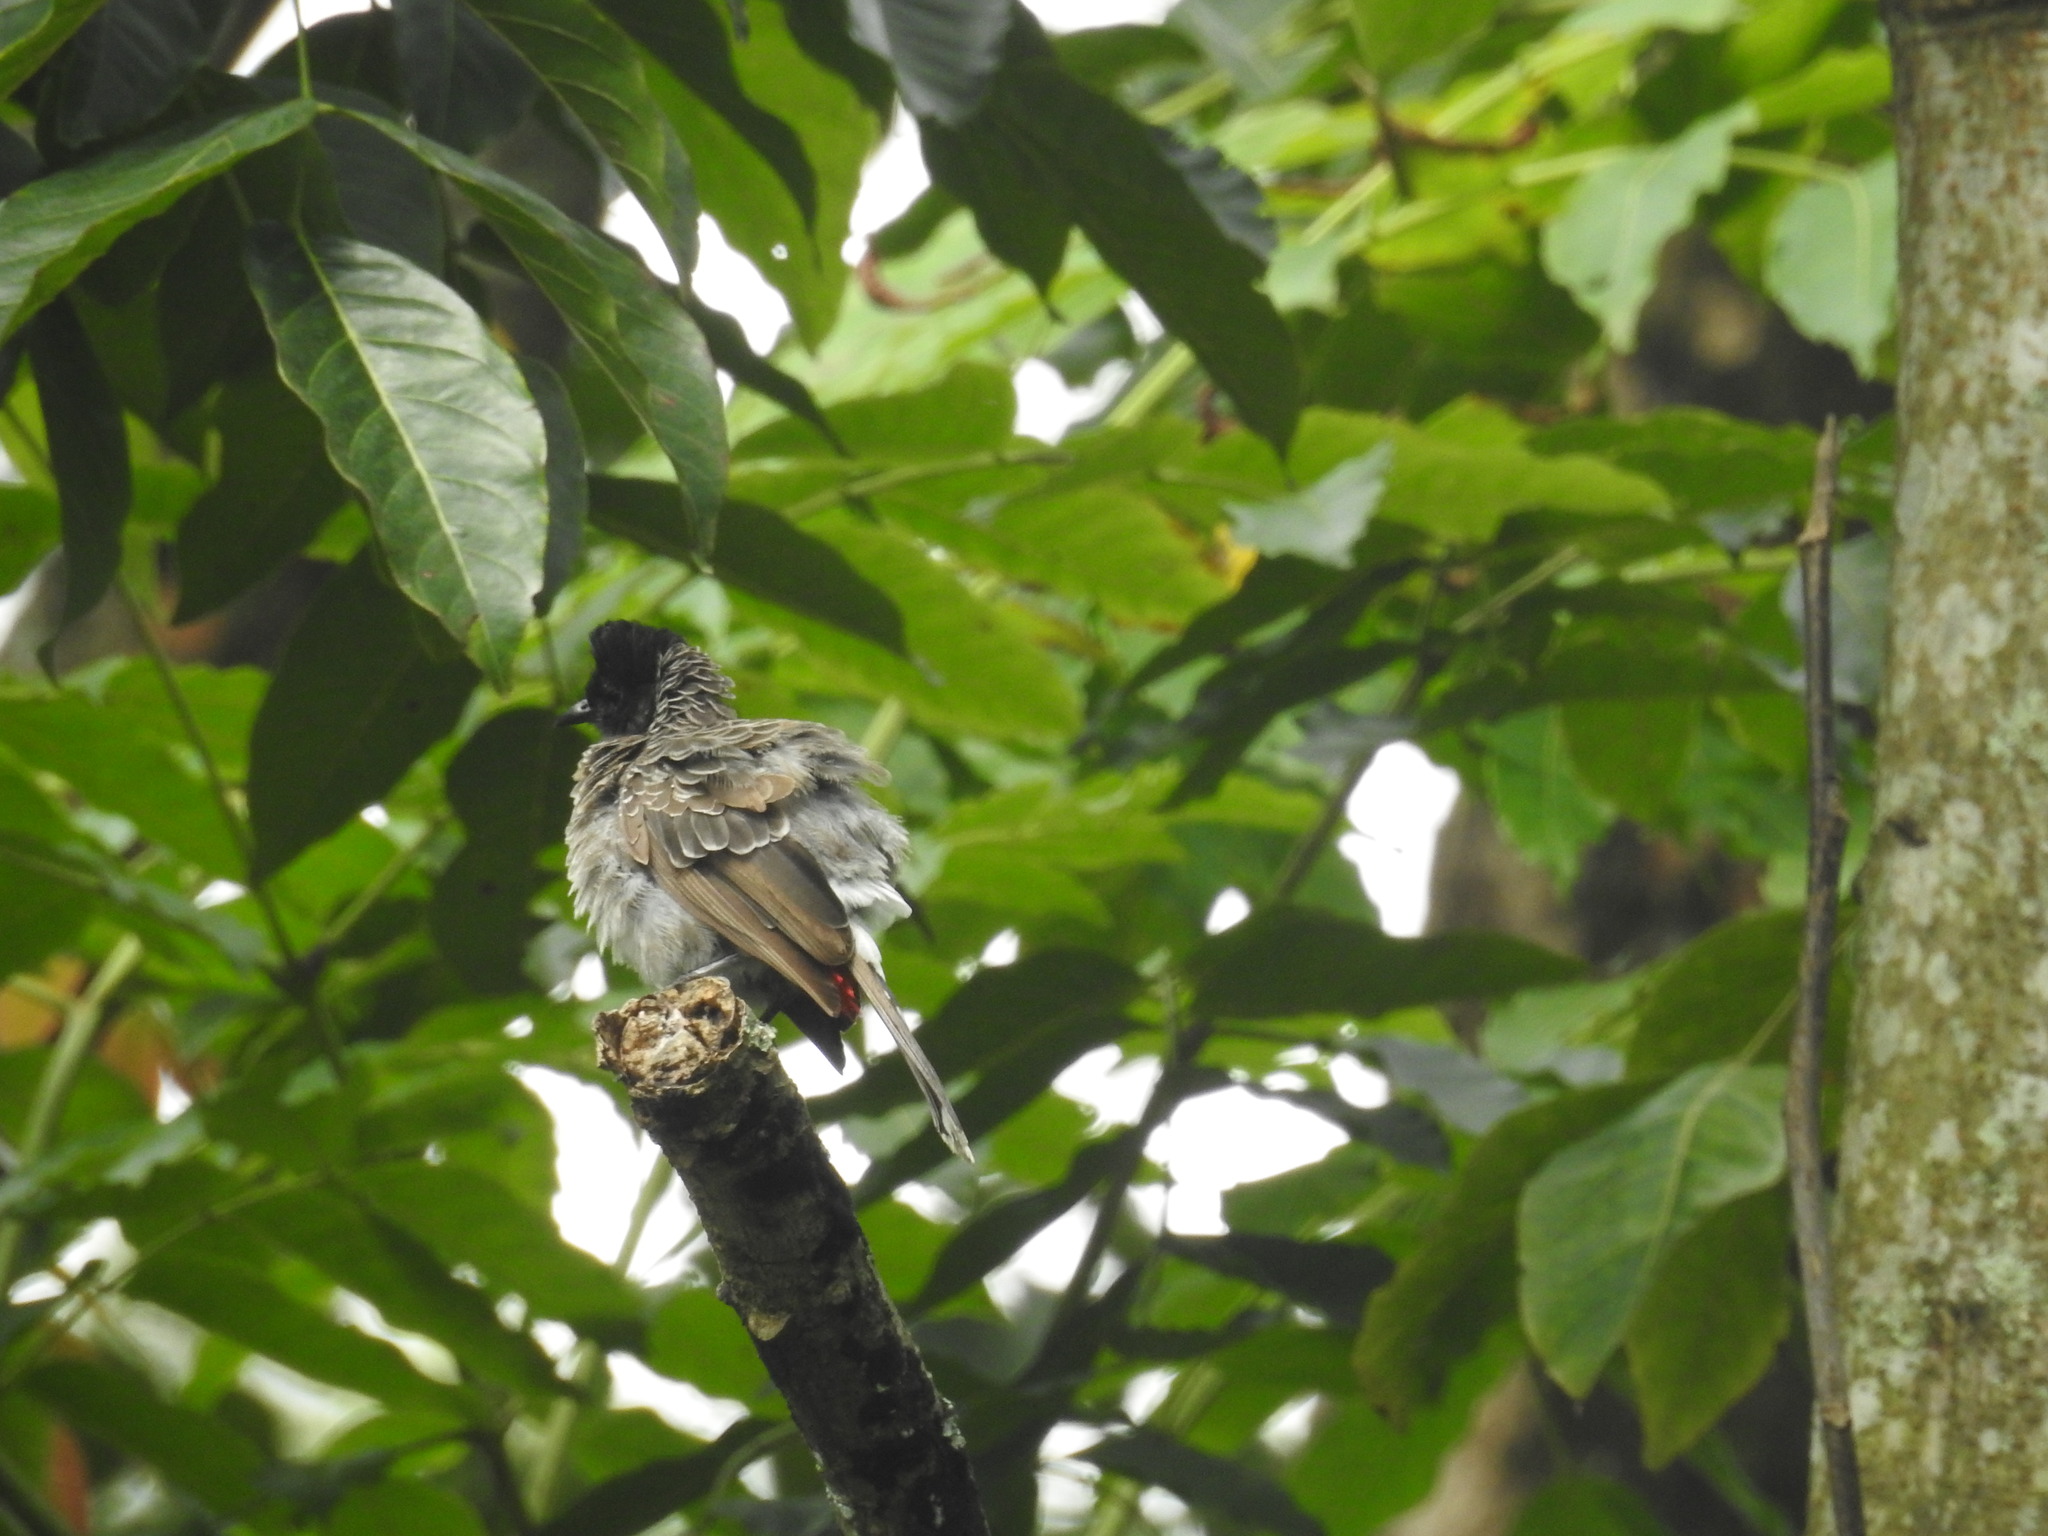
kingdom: Animalia
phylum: Chordata
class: Aves
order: Passeriformes
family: Pycnonotidae
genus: Pycnonotus
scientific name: Pycnonotus cafer
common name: Red-vented bulbul
